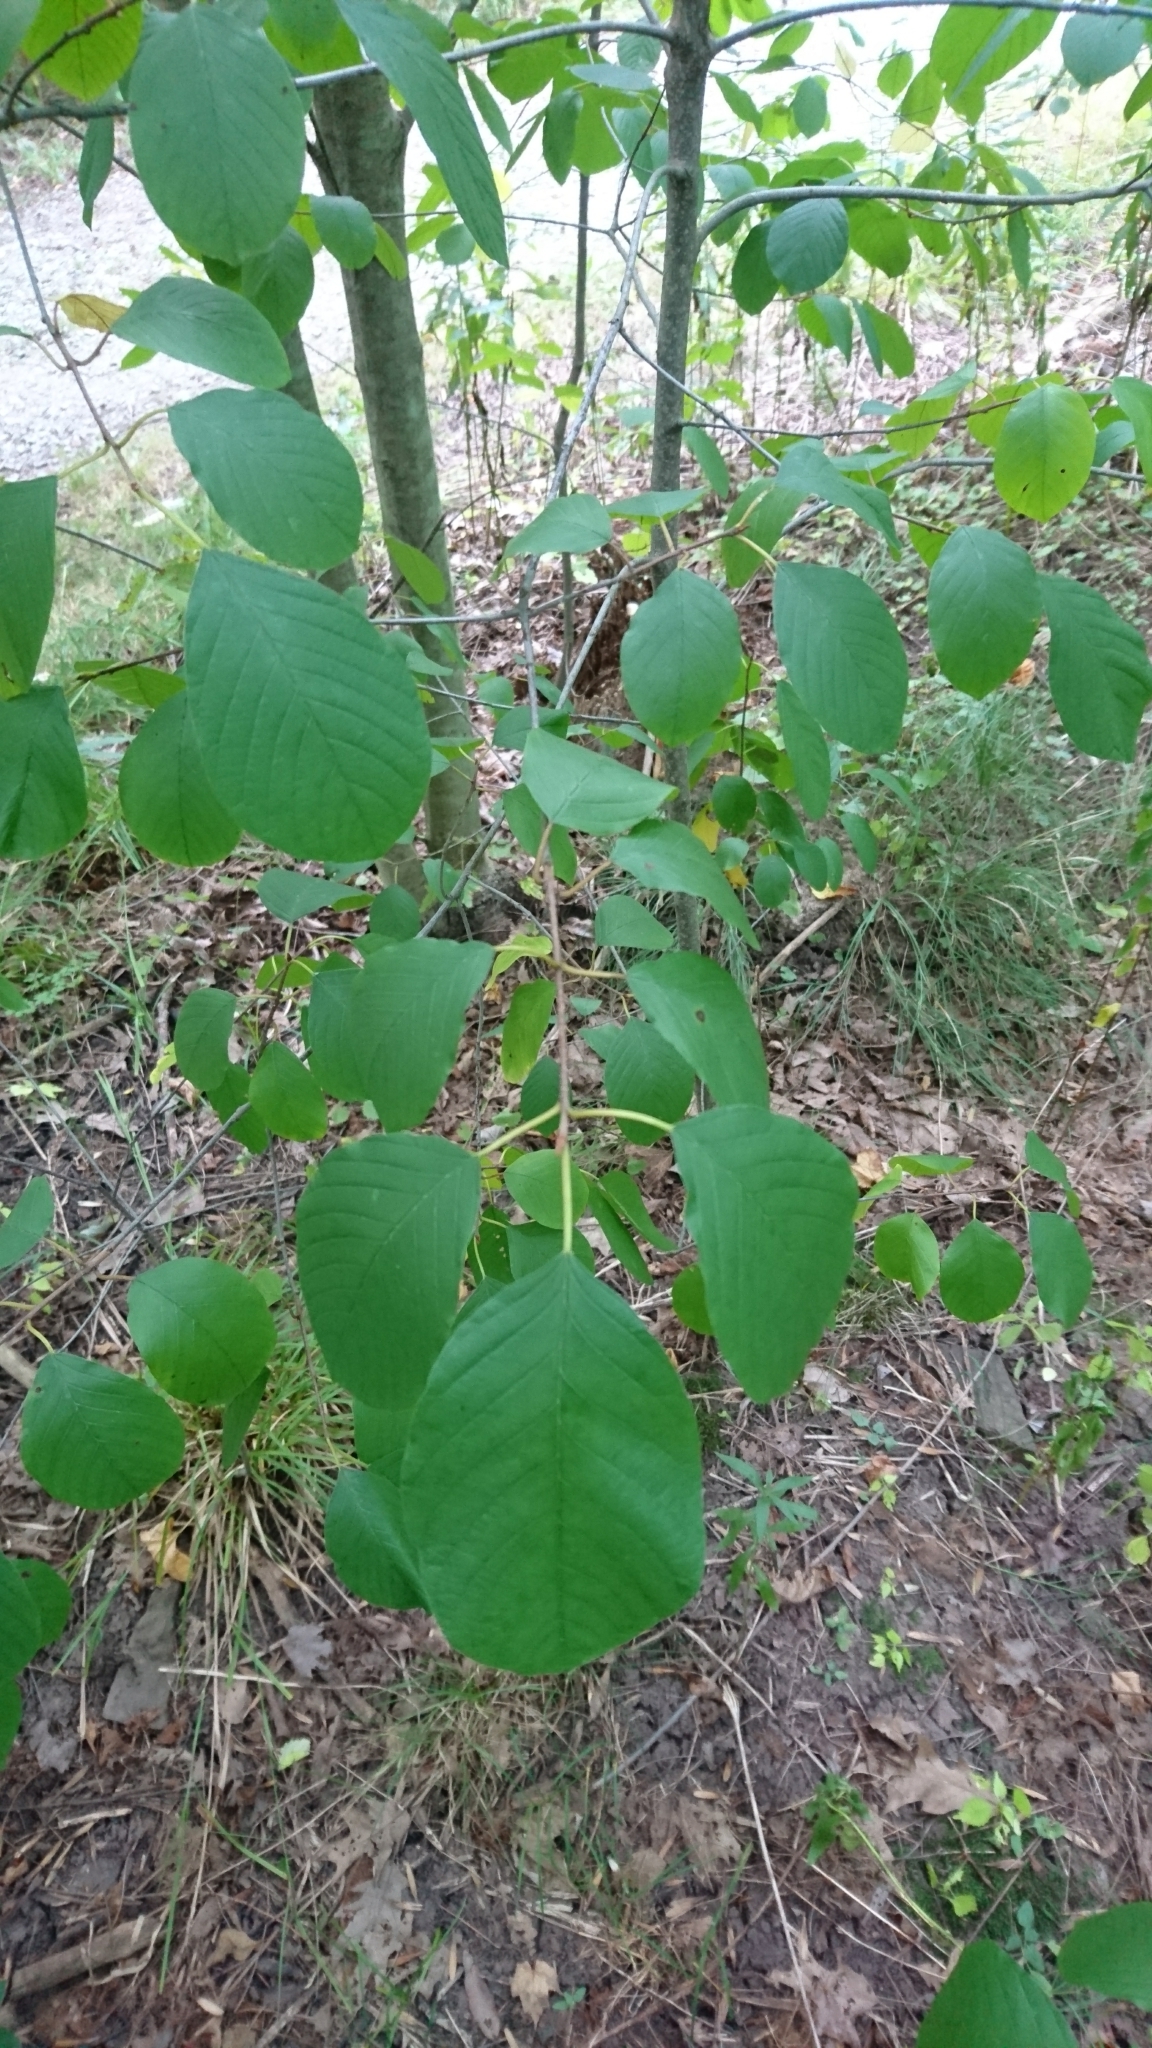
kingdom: Plantae
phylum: Tracheophyta
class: Magnoliopsida
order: Rosales
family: Rhamnaceae
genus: Frangula
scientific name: Frangula alnus
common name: Alder buckthorn
